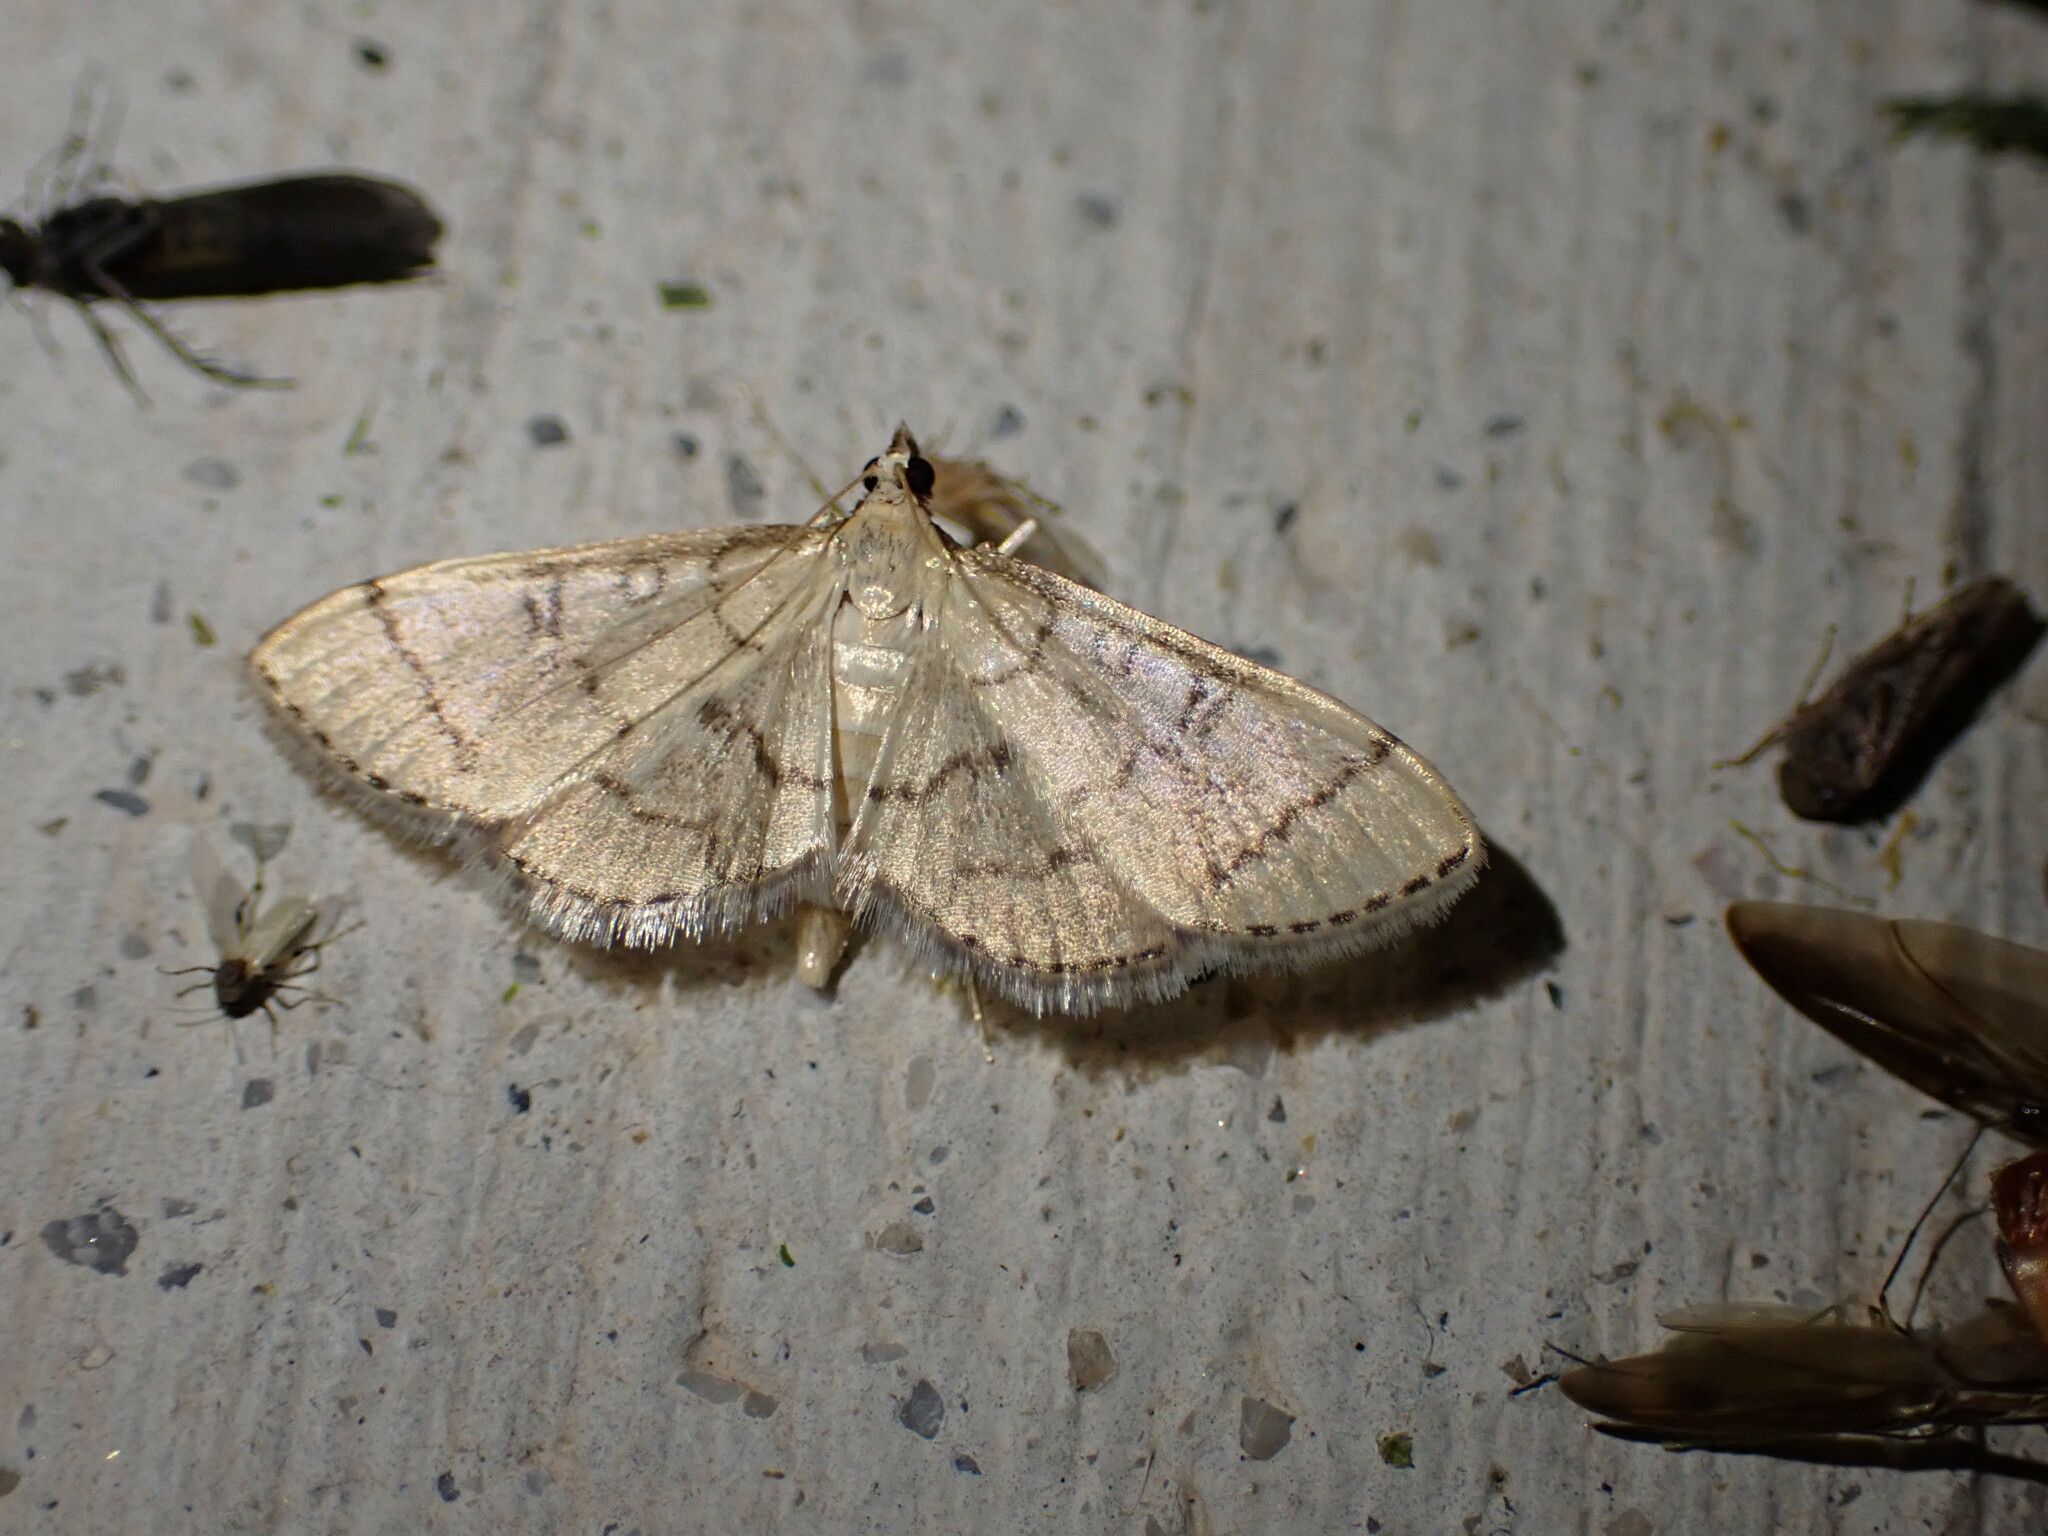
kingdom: Animalia
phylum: Arthropoda
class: Insecta
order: Lepidoptera
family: Crambidae
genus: Lamprosema
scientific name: Lamprosema Blepharomastix ranalis
